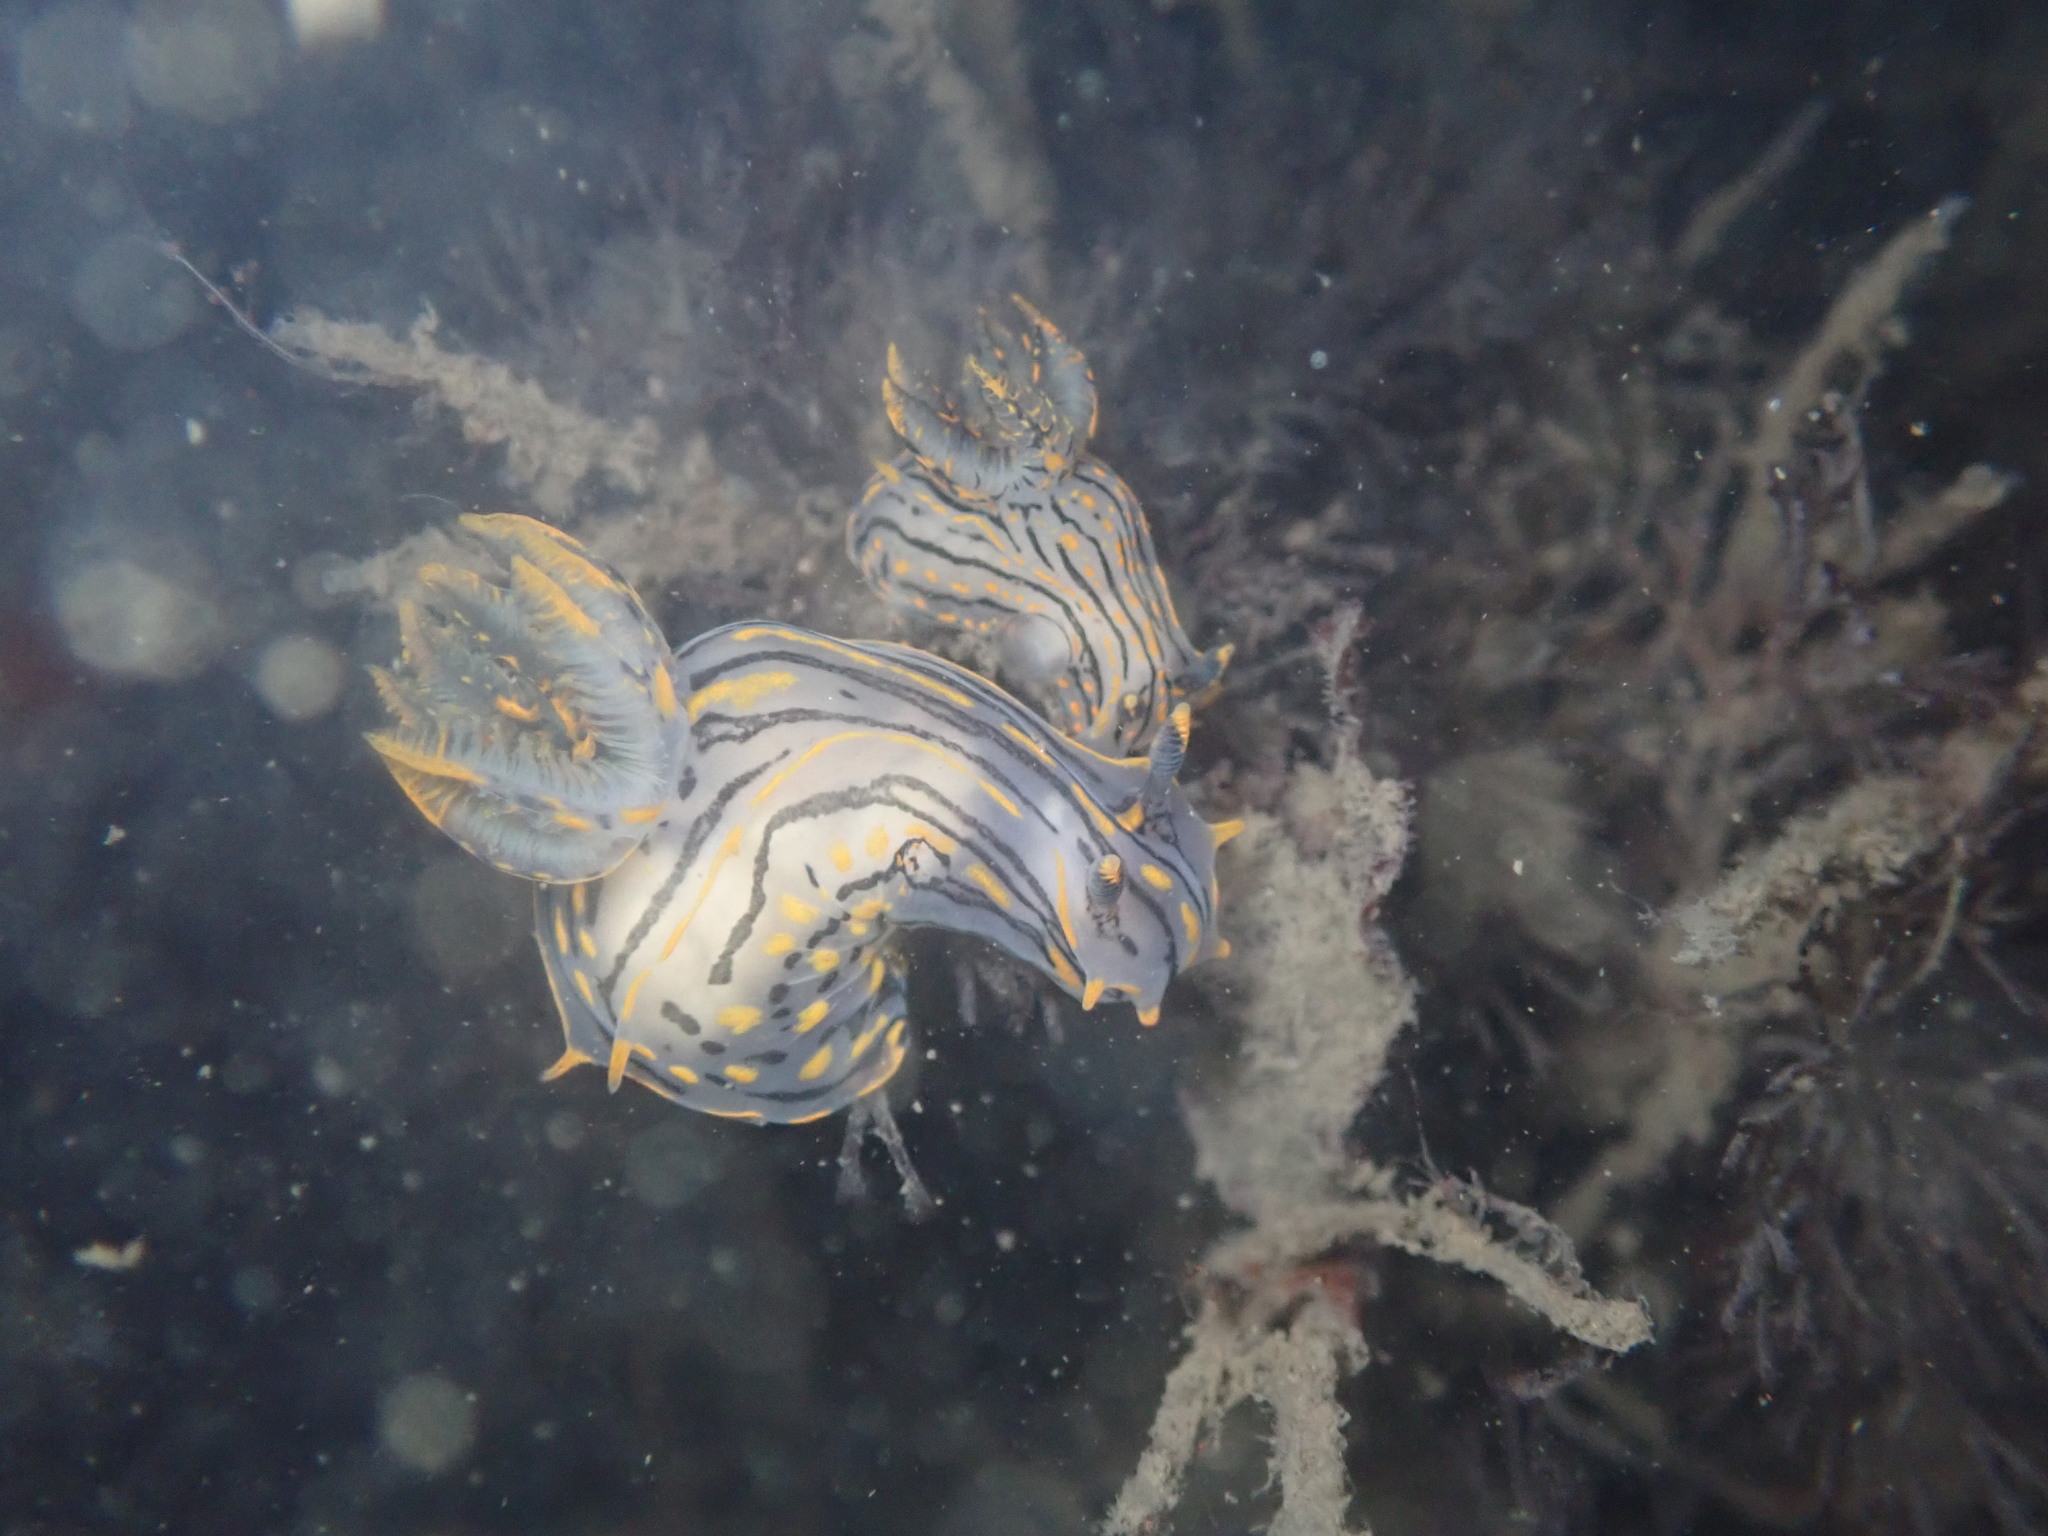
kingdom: Animalia
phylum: Mollusca
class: Gastropoda
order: Nudibranchia
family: Polyceridae
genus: Polycera
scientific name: Polycera atra
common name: Orange-spike polycera
